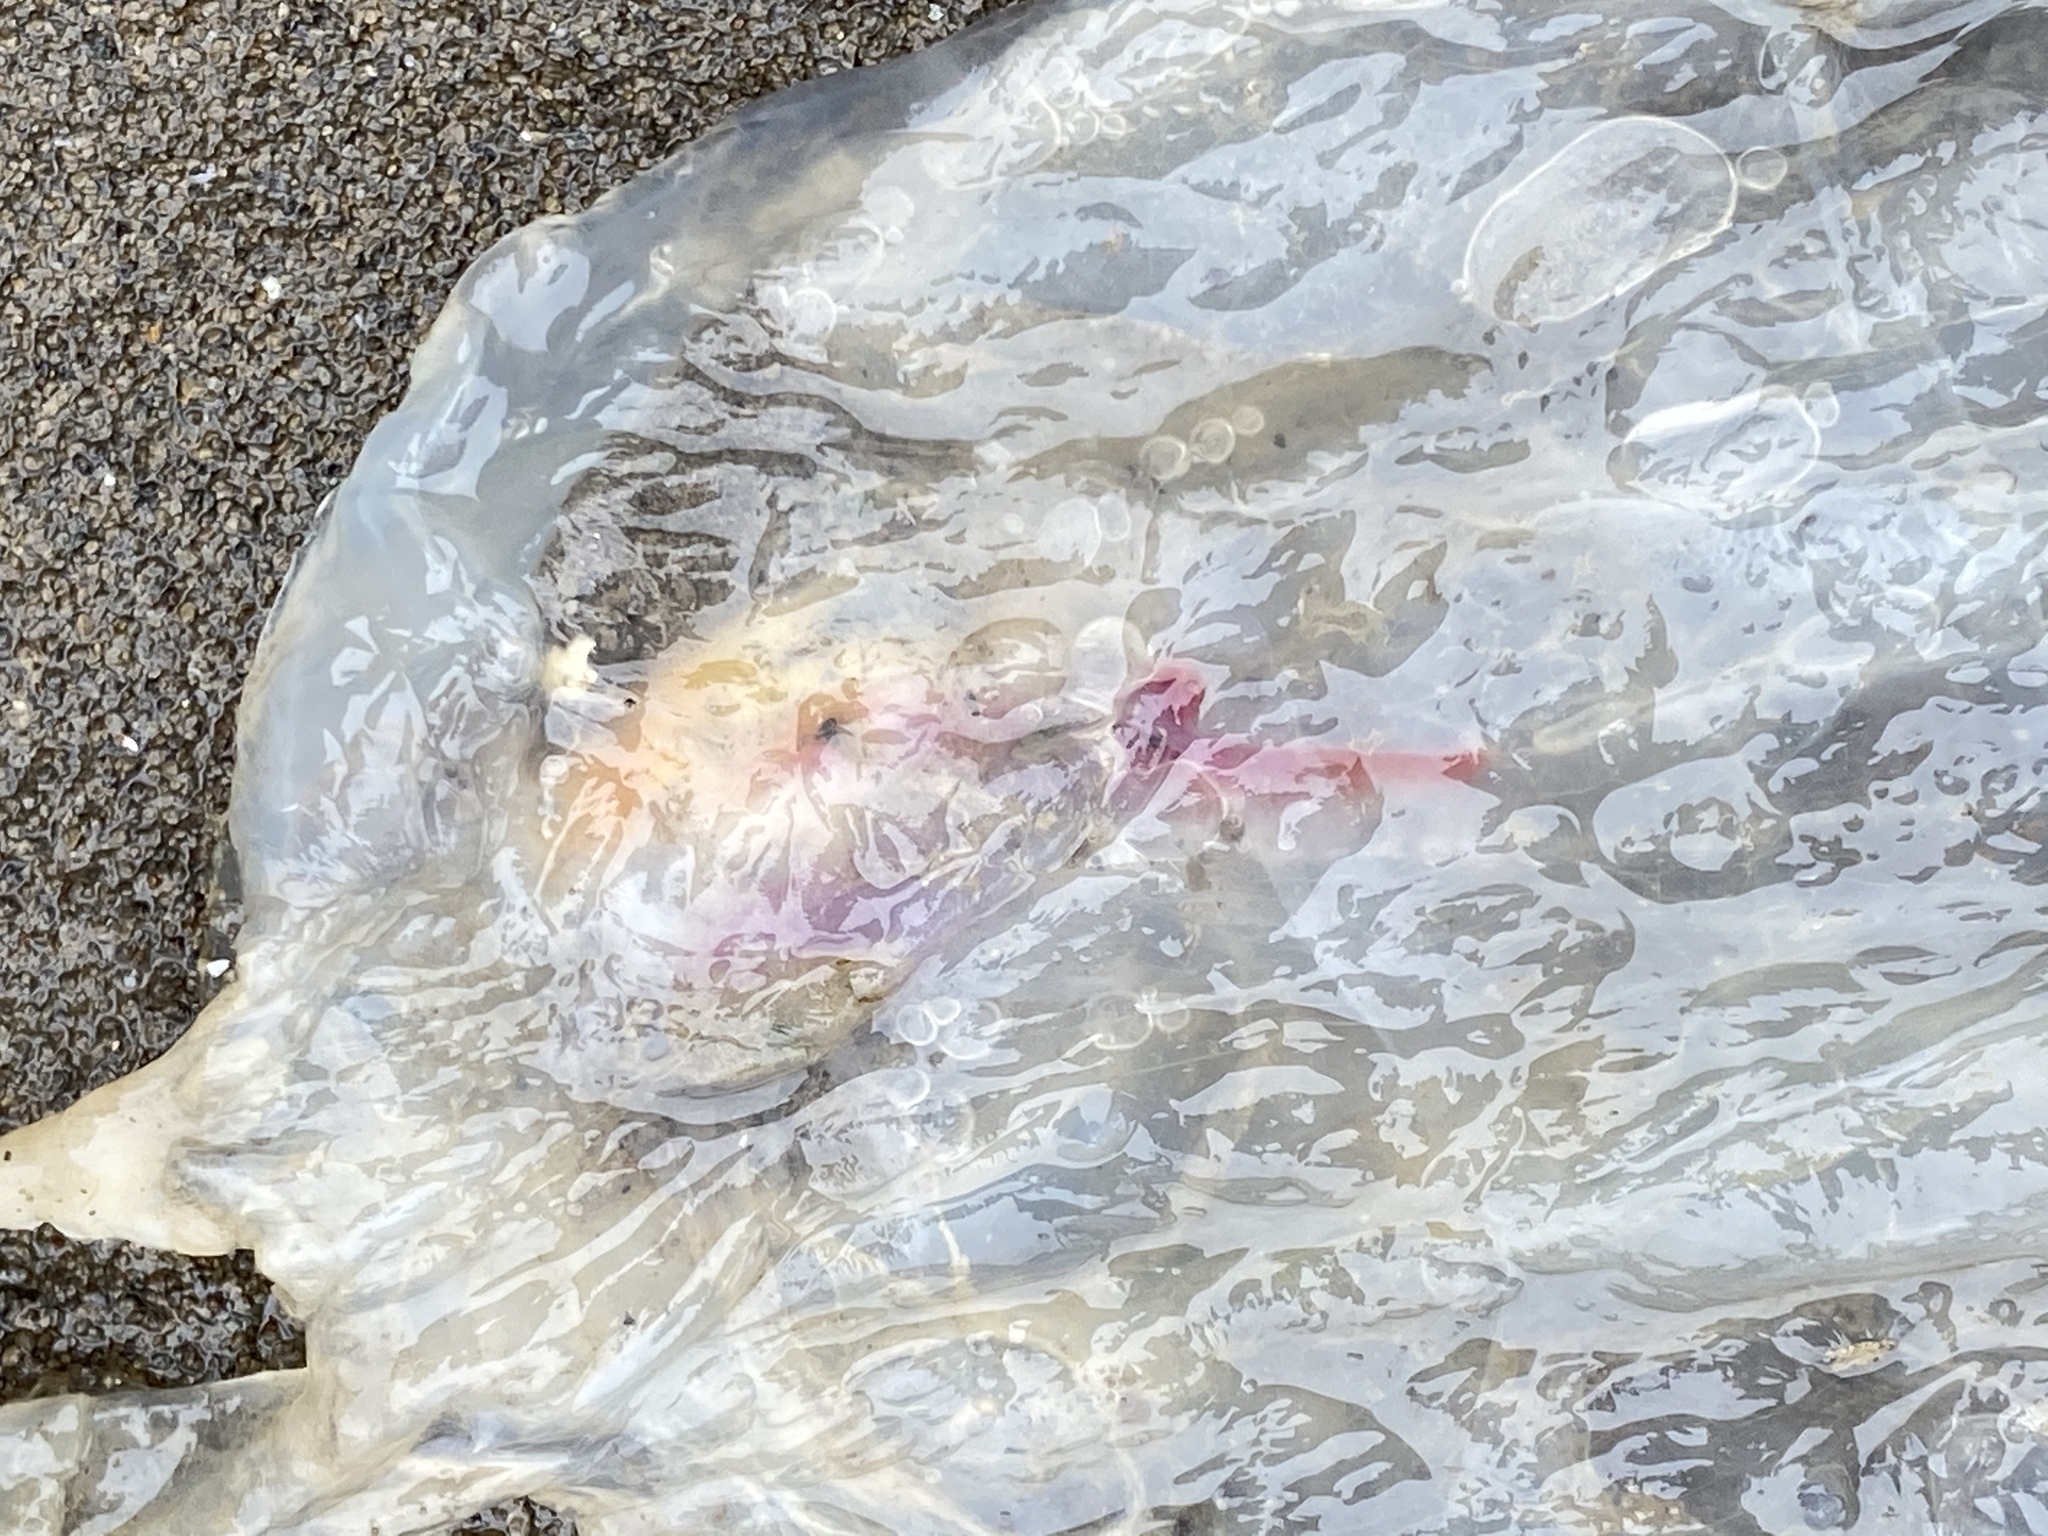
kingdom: Animalia
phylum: Chordata
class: Thaliacea
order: Salpida
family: Salpidae
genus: Thetys
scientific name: Thetys vagina
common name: Vagina salp
